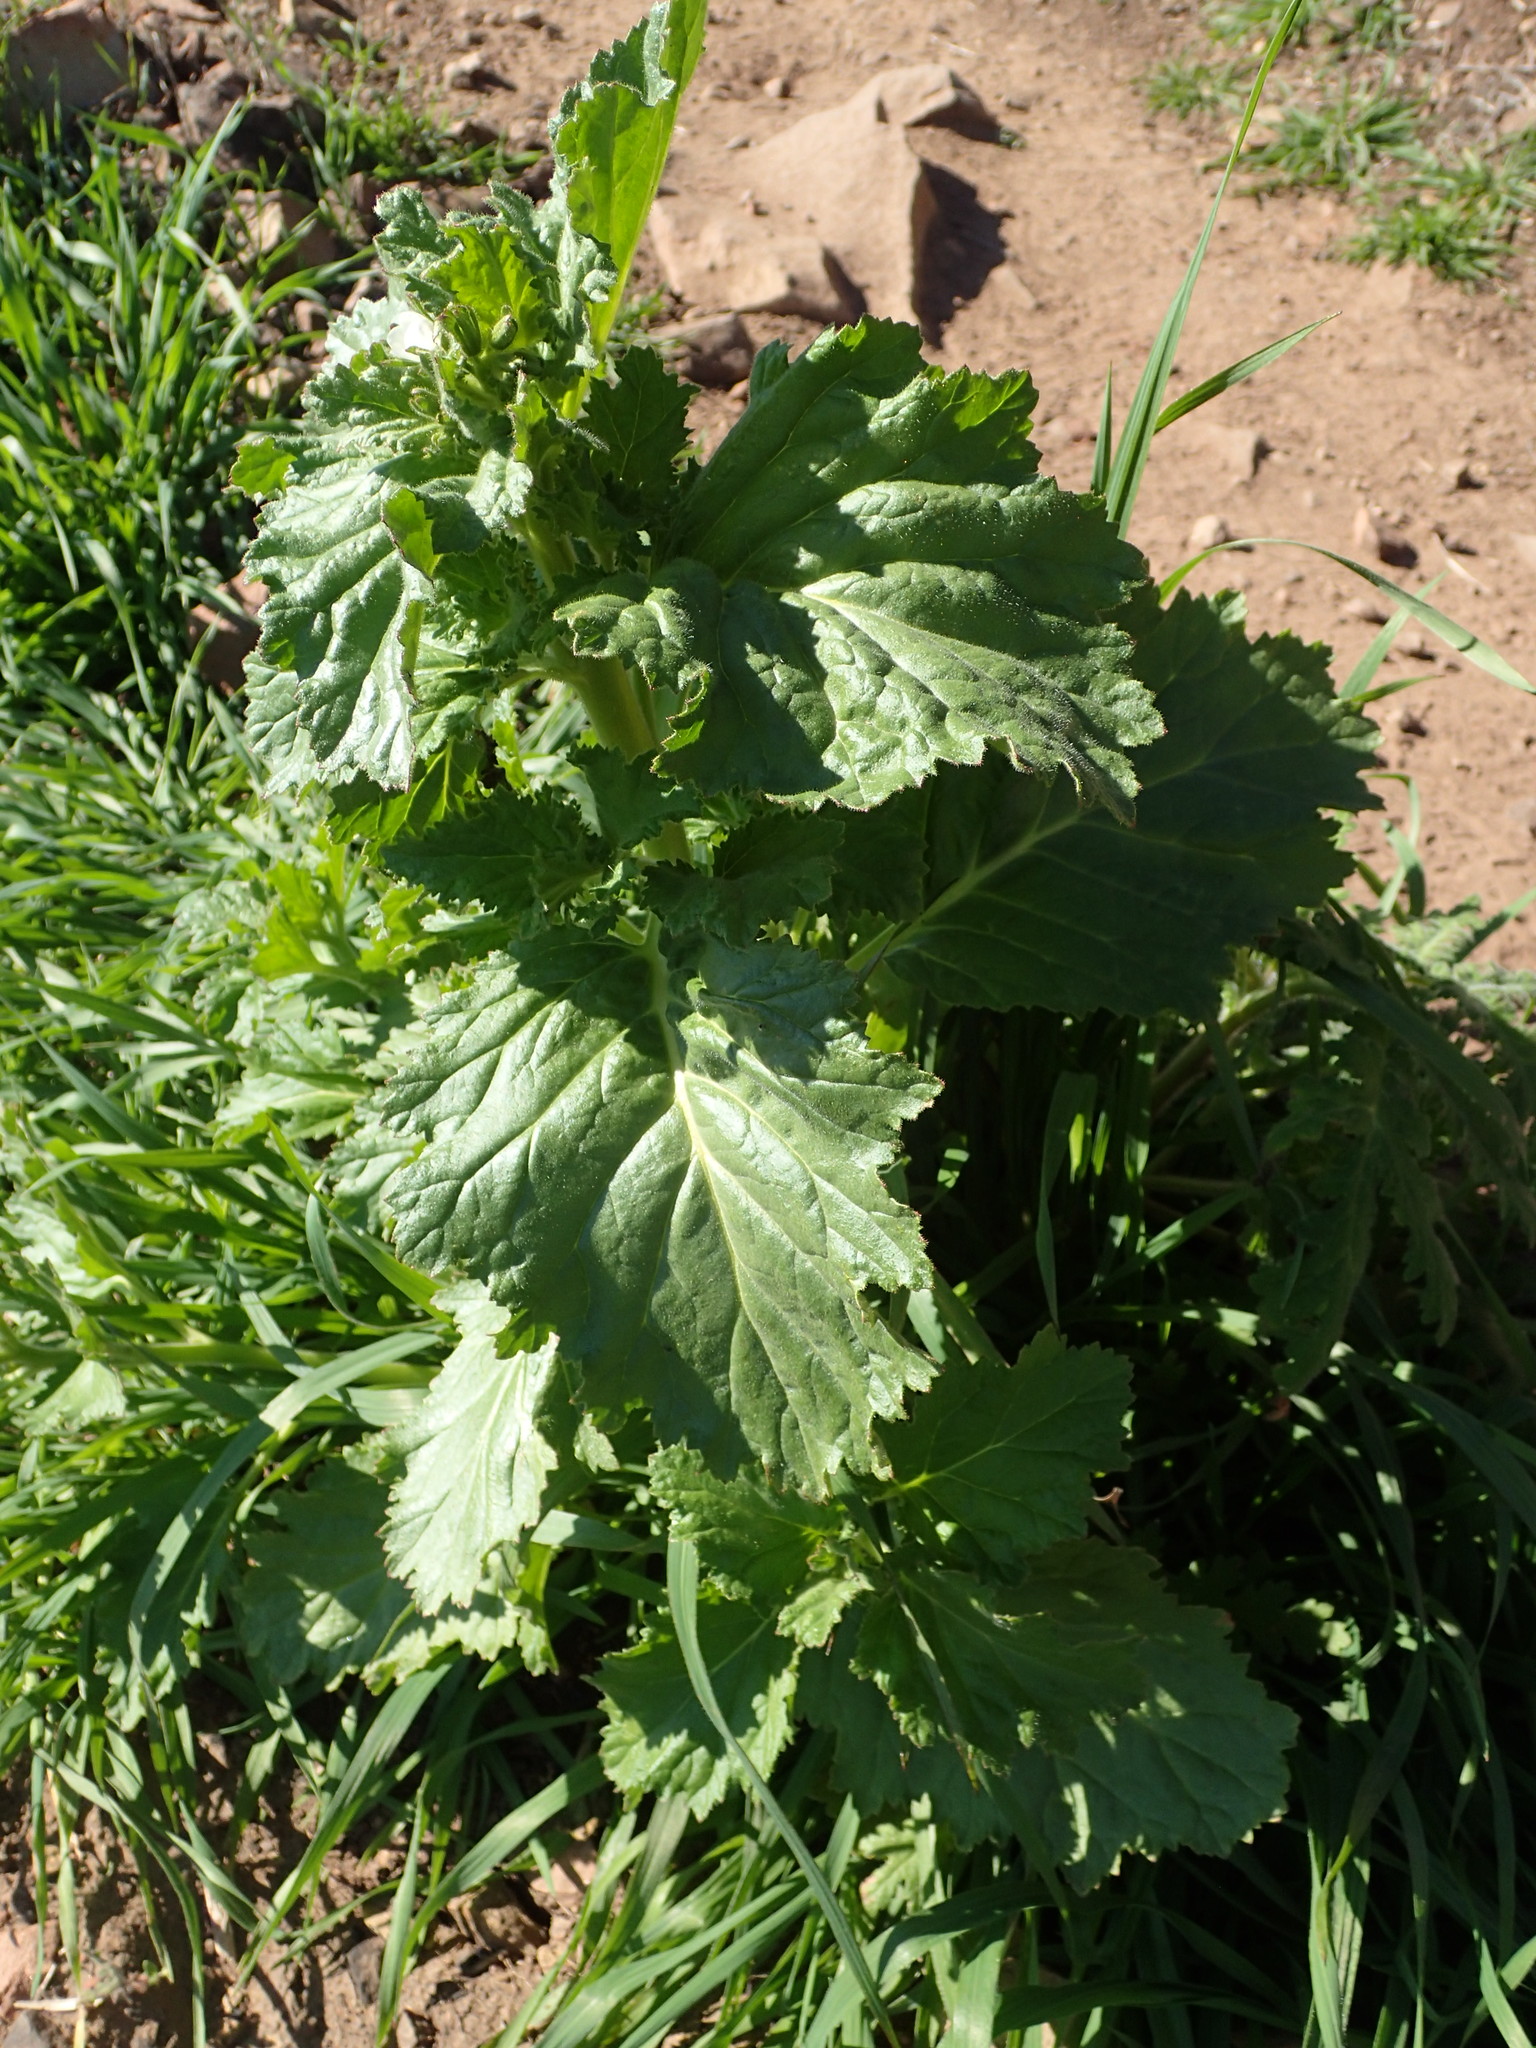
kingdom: Plantae
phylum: Tracheophyta
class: Magnoliopsida
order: Boraginales
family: Hydrophyllaceae
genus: Phacelia
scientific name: Phacelia viscida
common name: Sticky phacelia
